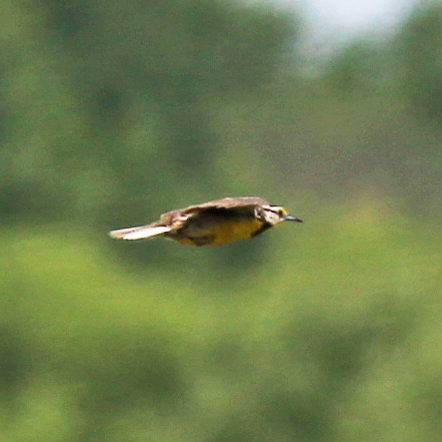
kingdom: Animalia
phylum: Chordata
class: Aves
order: Passeriformes
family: Icteridae
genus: Sturnella
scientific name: Sturnella magna
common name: Eastern meadowlark
